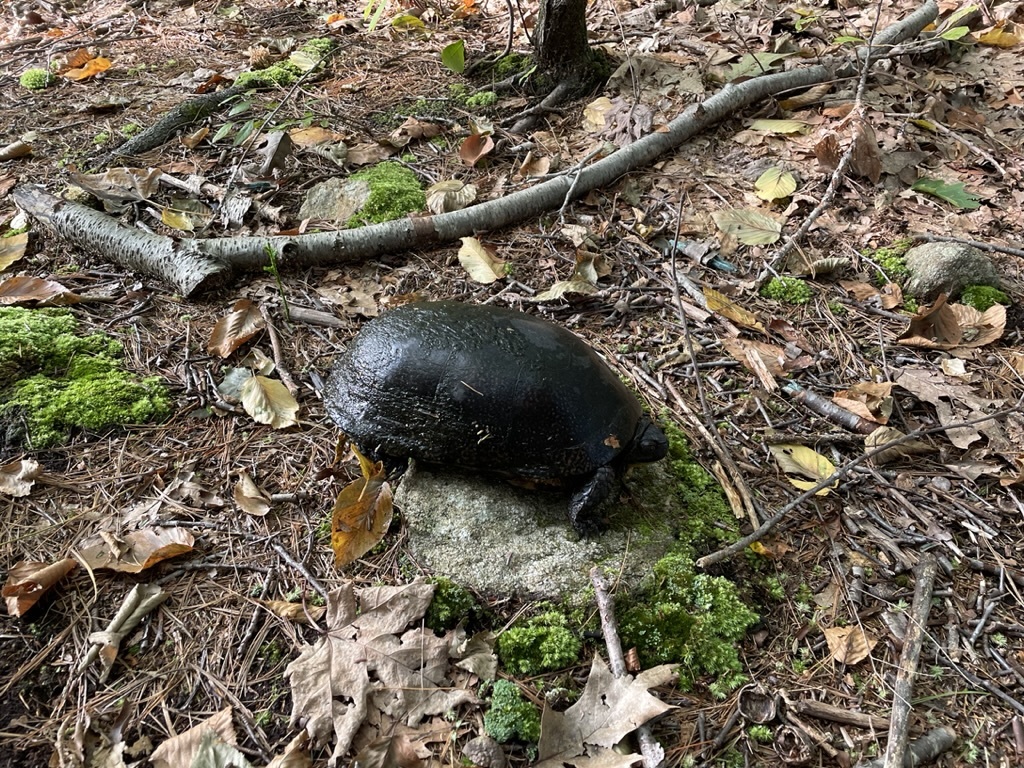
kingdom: Animalia
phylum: Chordata
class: Testudines
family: Emydidae
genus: Emys
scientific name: Emys blandingii
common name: Blanding's turtle
